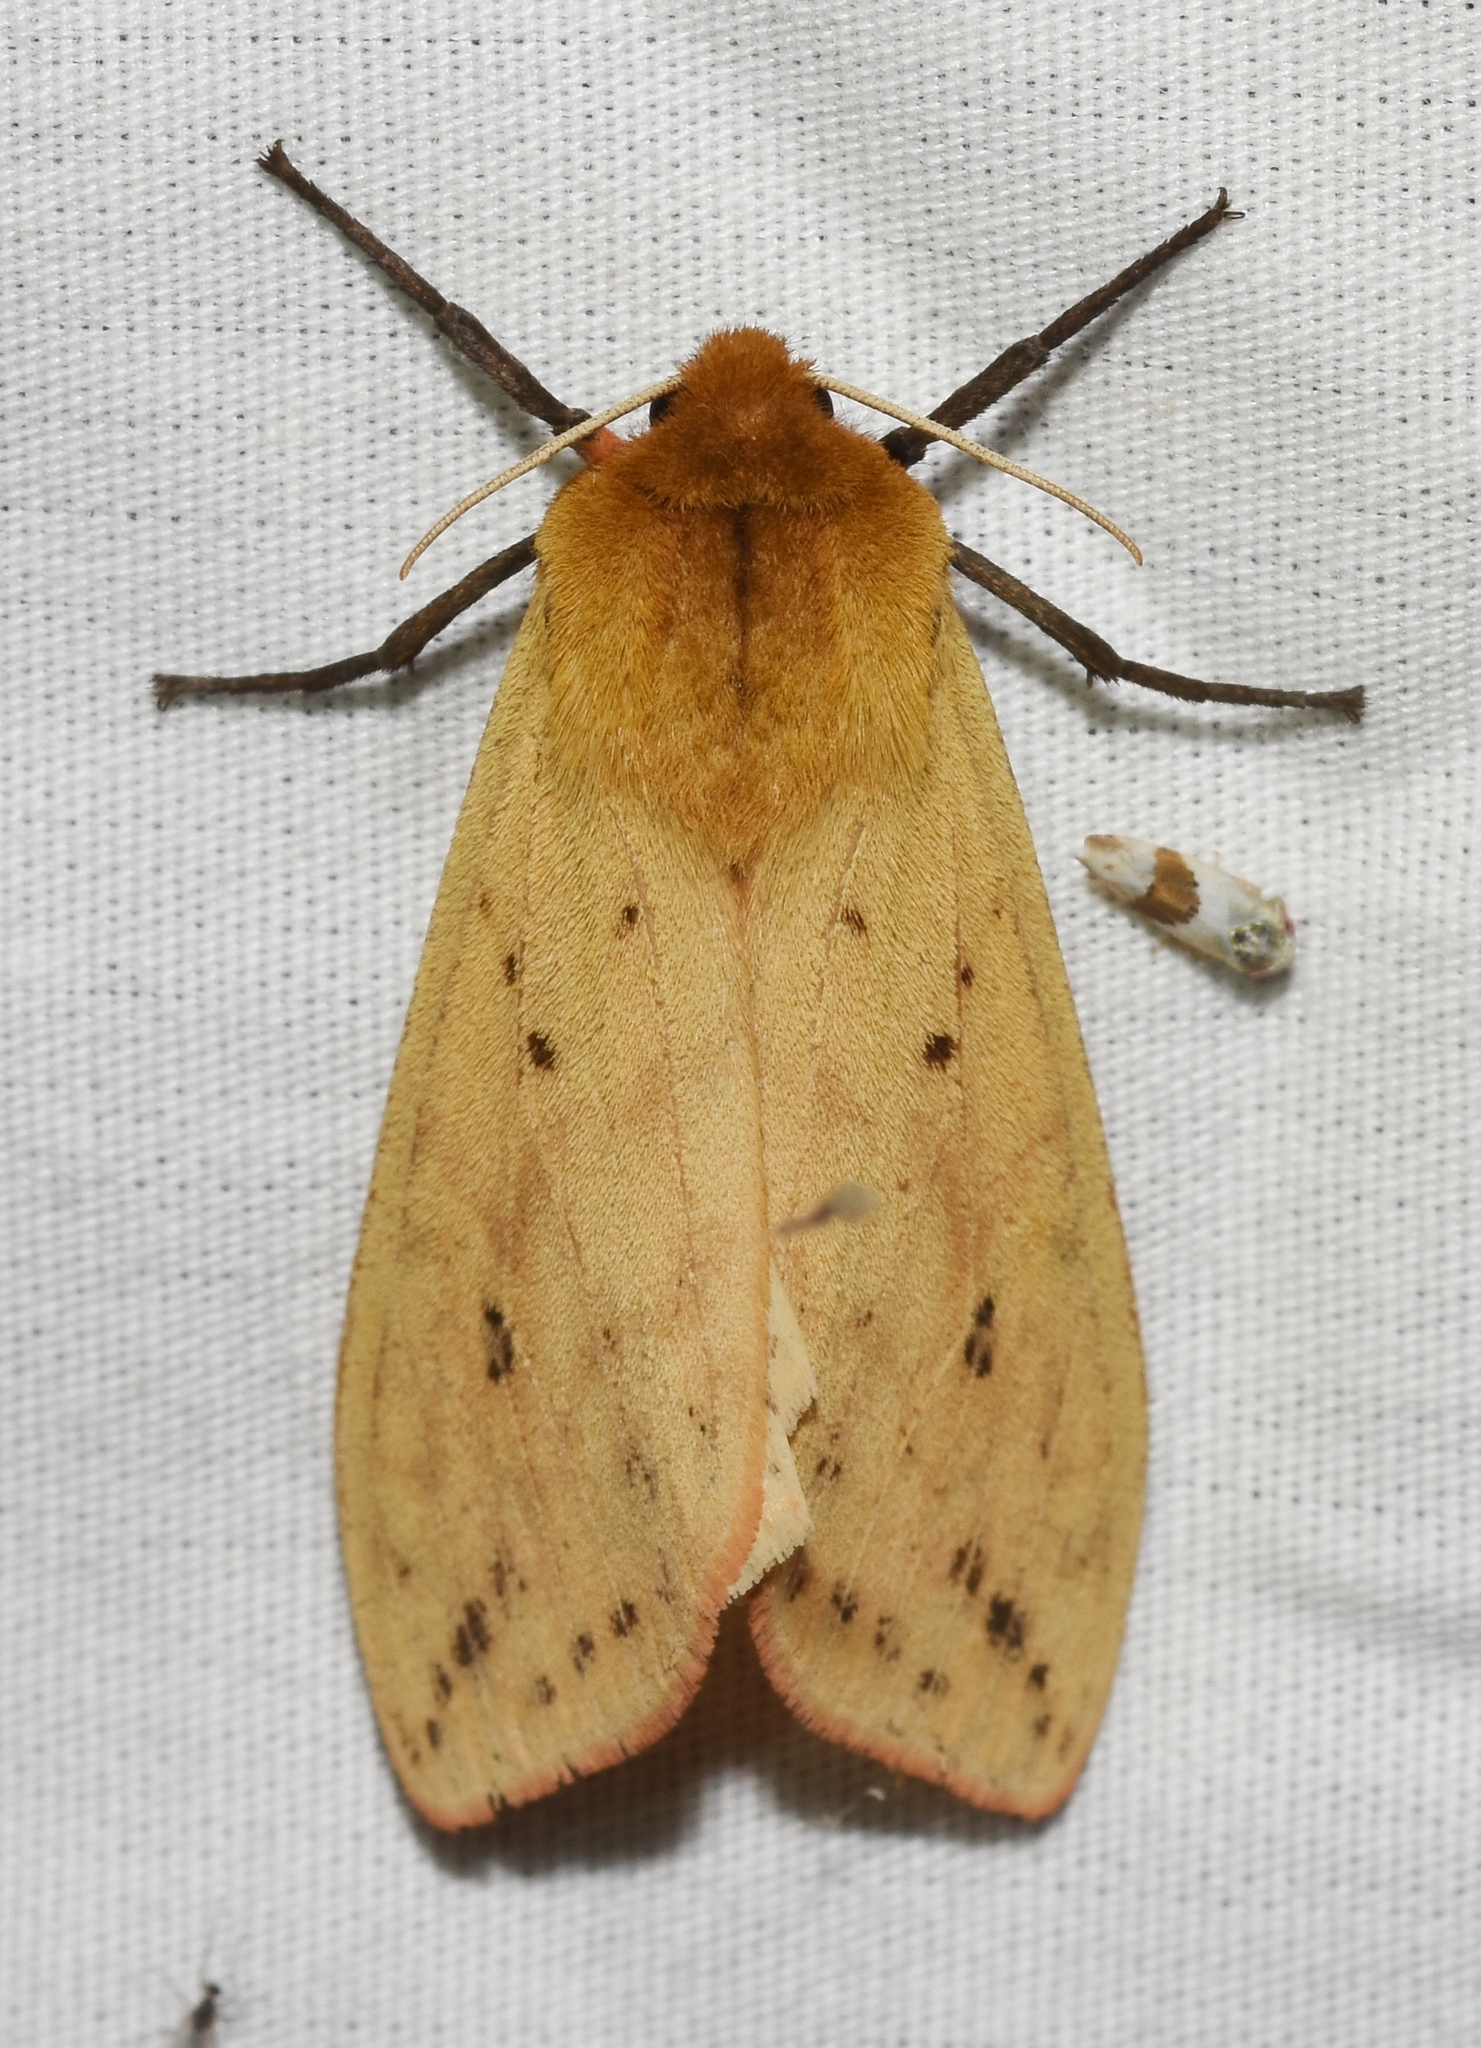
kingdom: Animalia
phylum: Arthropoda
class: Insecta
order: Lepidoptera
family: Erebidae
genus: Pyrrharctia
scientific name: Pyrrharctia isabella
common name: Isabella tiger moth
